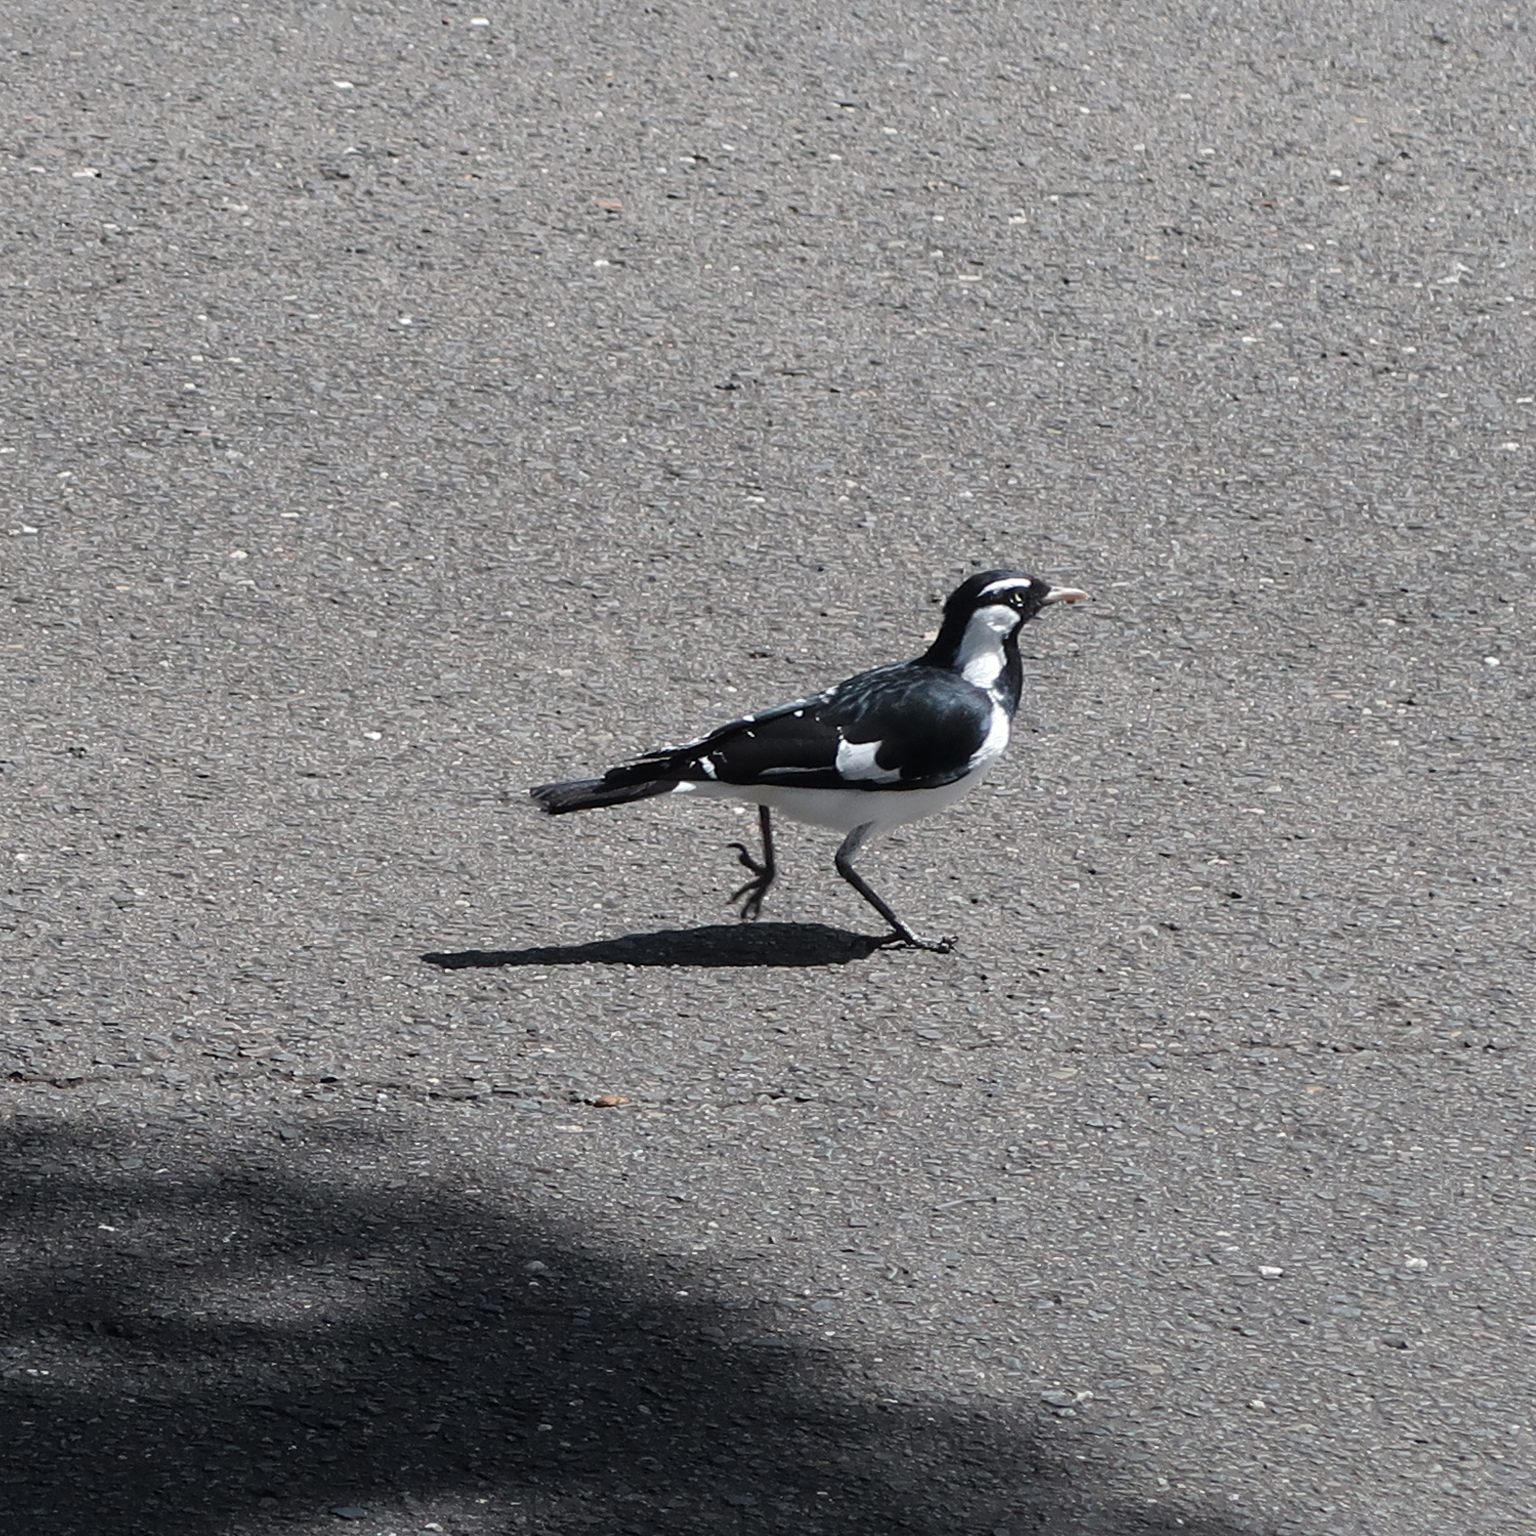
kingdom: Animalia
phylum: Chordata
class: Aves
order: Passeriformes
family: Monarchidae
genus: Grallina
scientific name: Grallina cyanoleuca
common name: Magpie-lark
